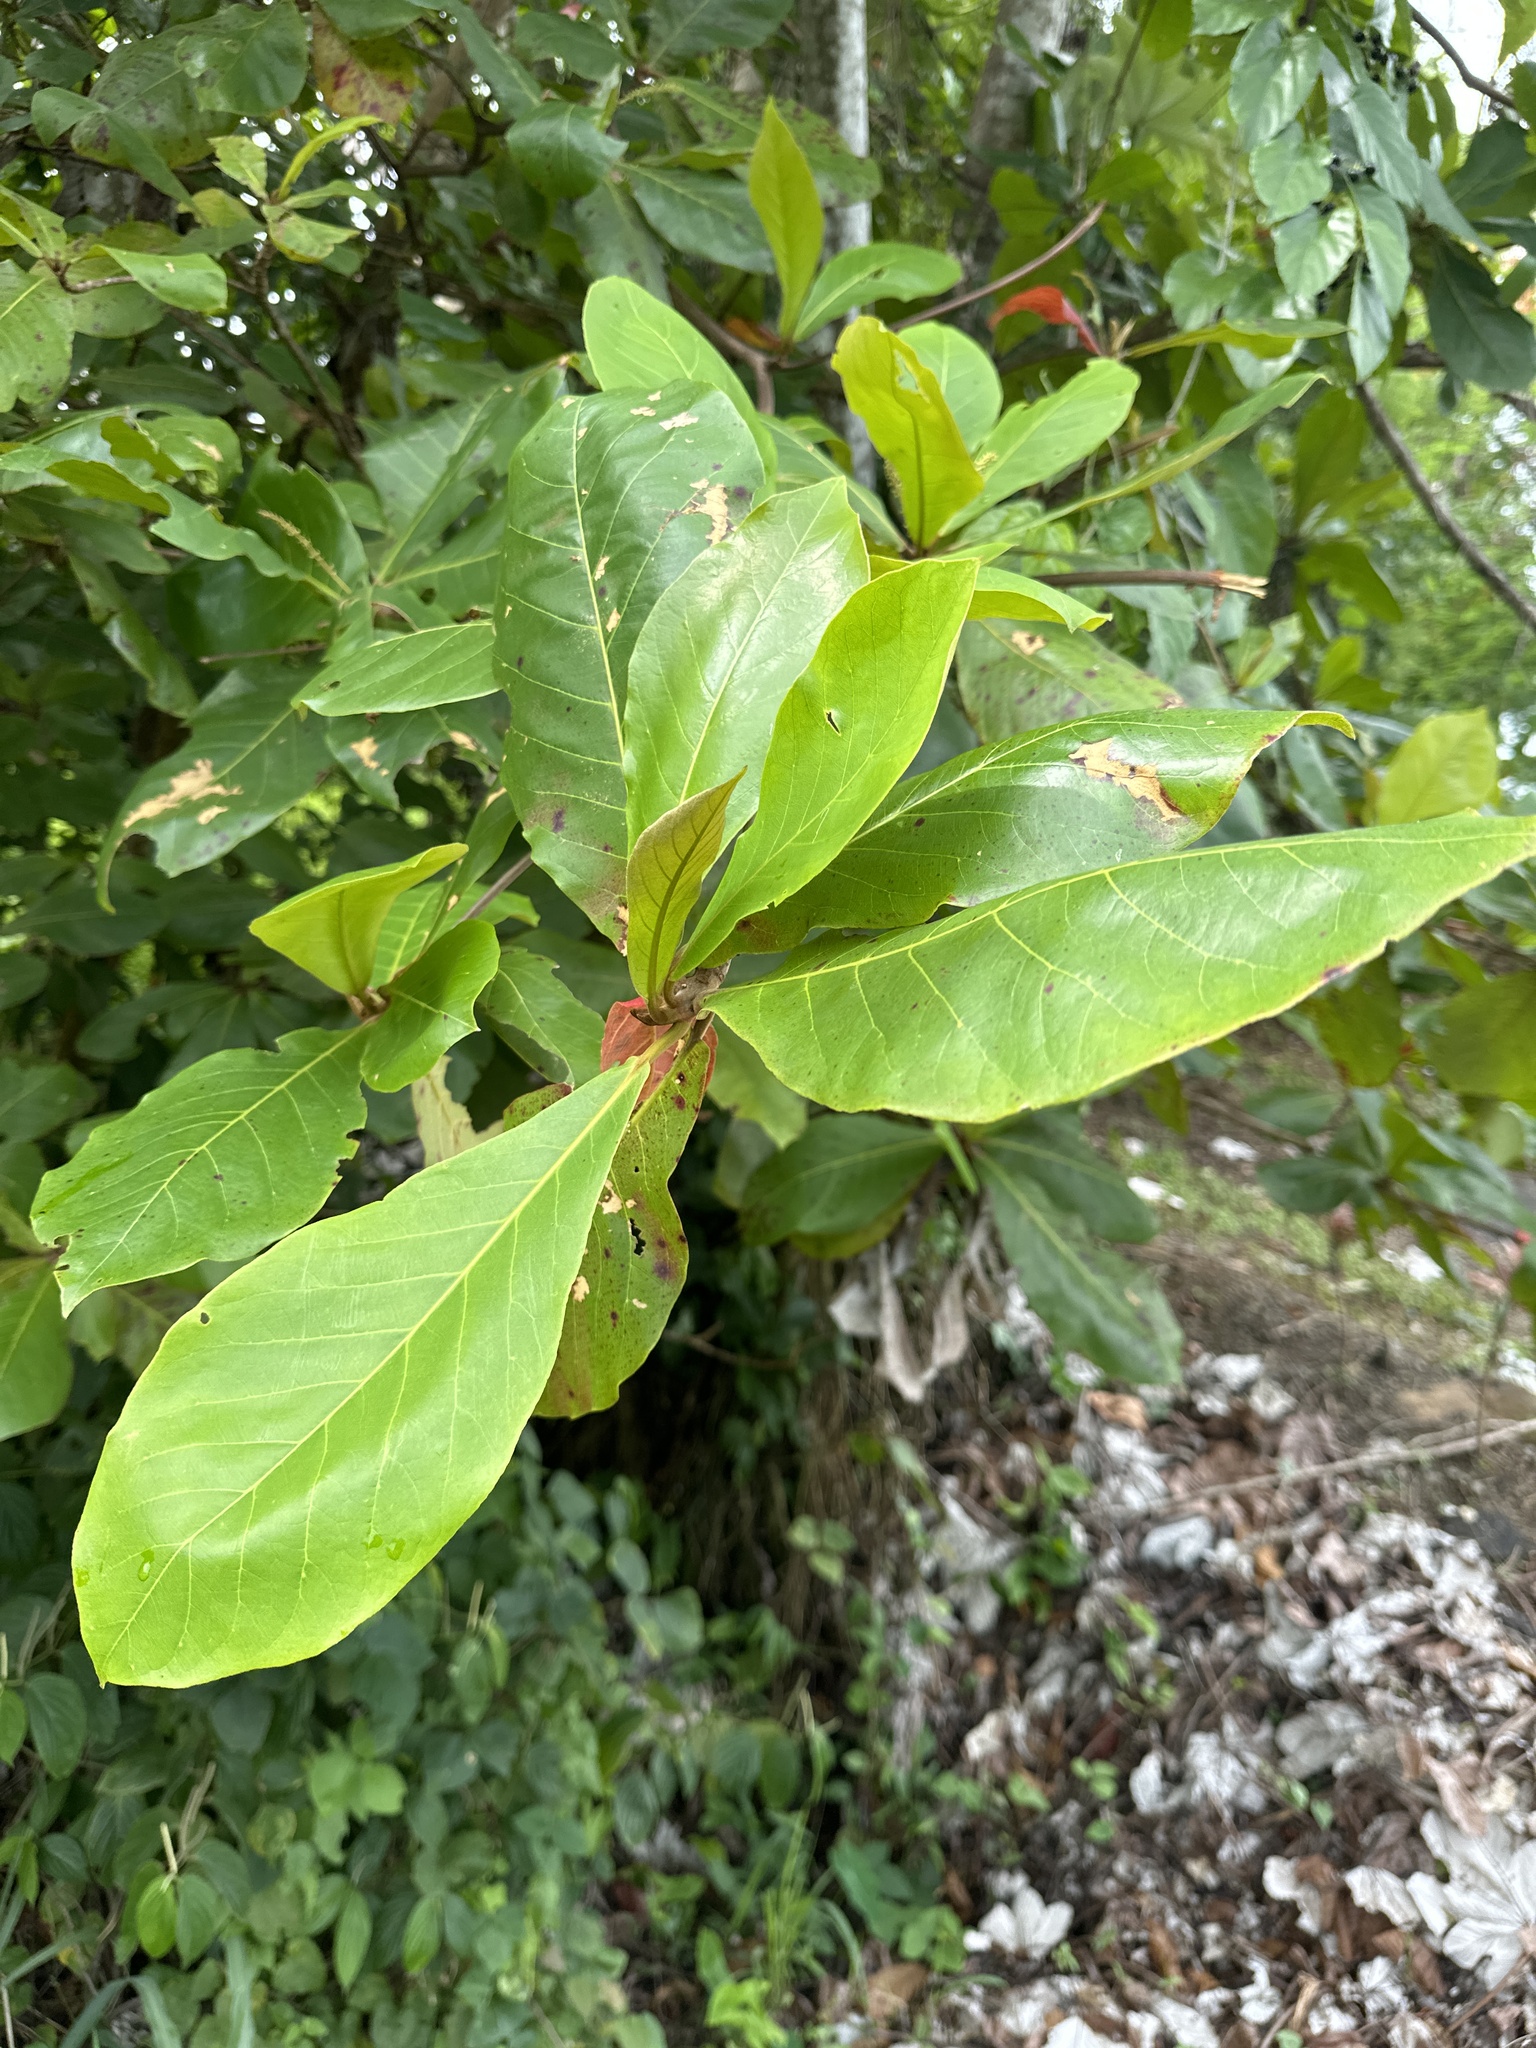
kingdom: Plantae
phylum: Tracheophyta
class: Magnoliopsida
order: Myrtales
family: Combretaceae
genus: Terminalia
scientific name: Terminalia catappa
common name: Tropical almond
